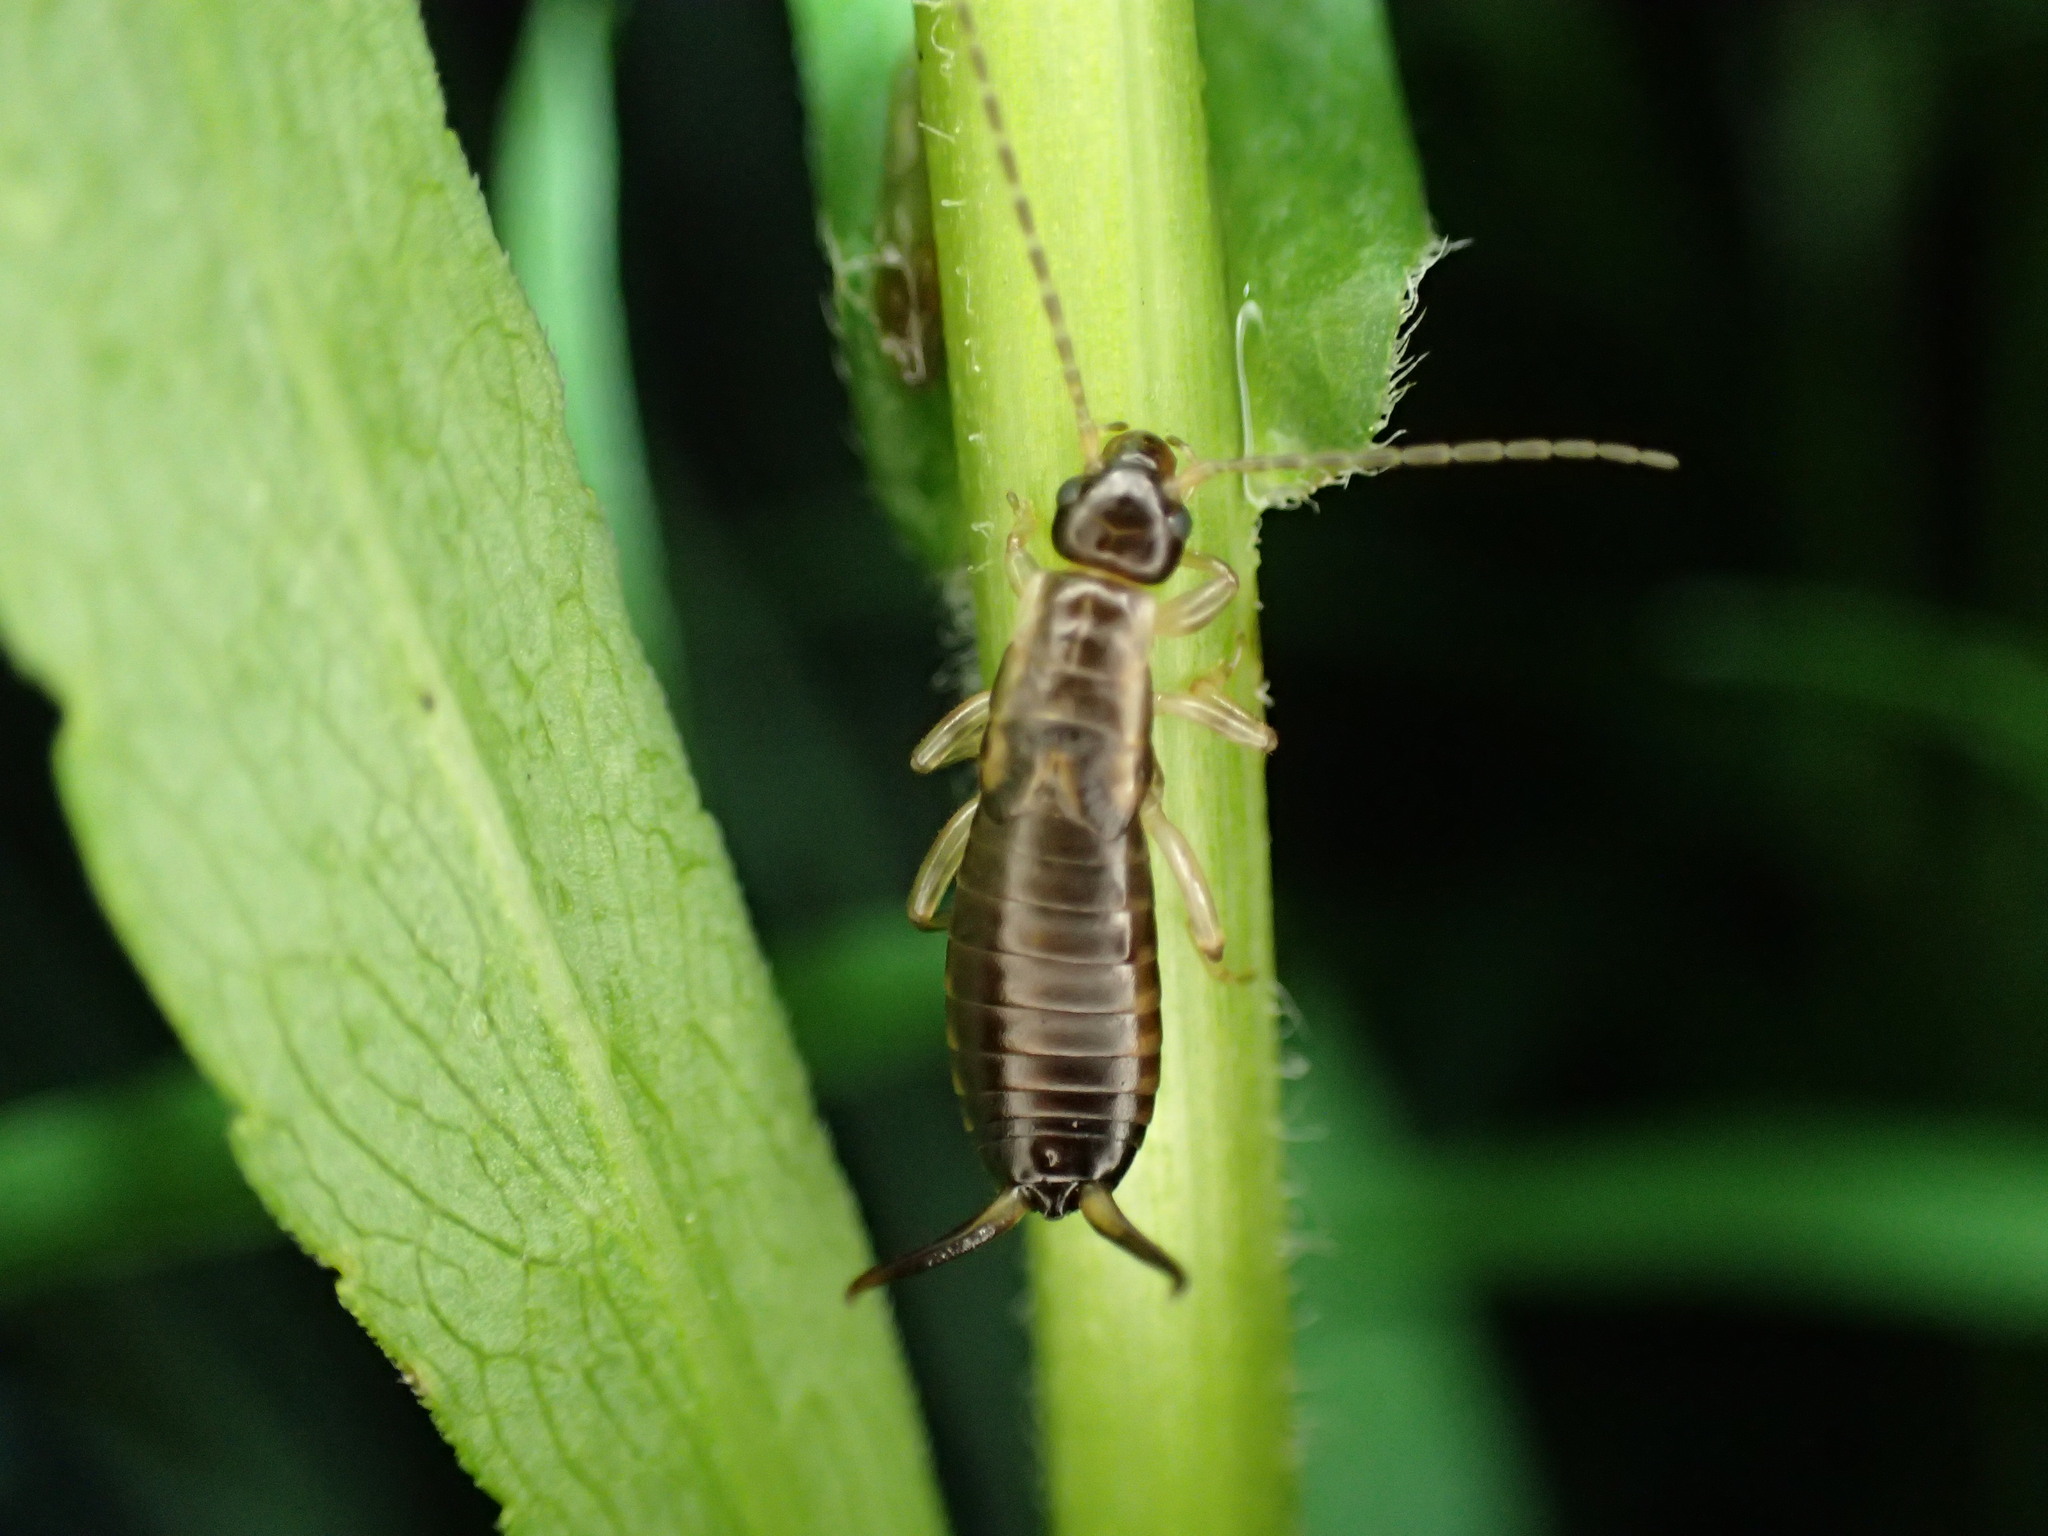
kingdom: Animalia
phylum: Arthropoda
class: Insecta
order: Dermaptera
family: Forficulidae
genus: Forficula
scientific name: Forficula dentata
